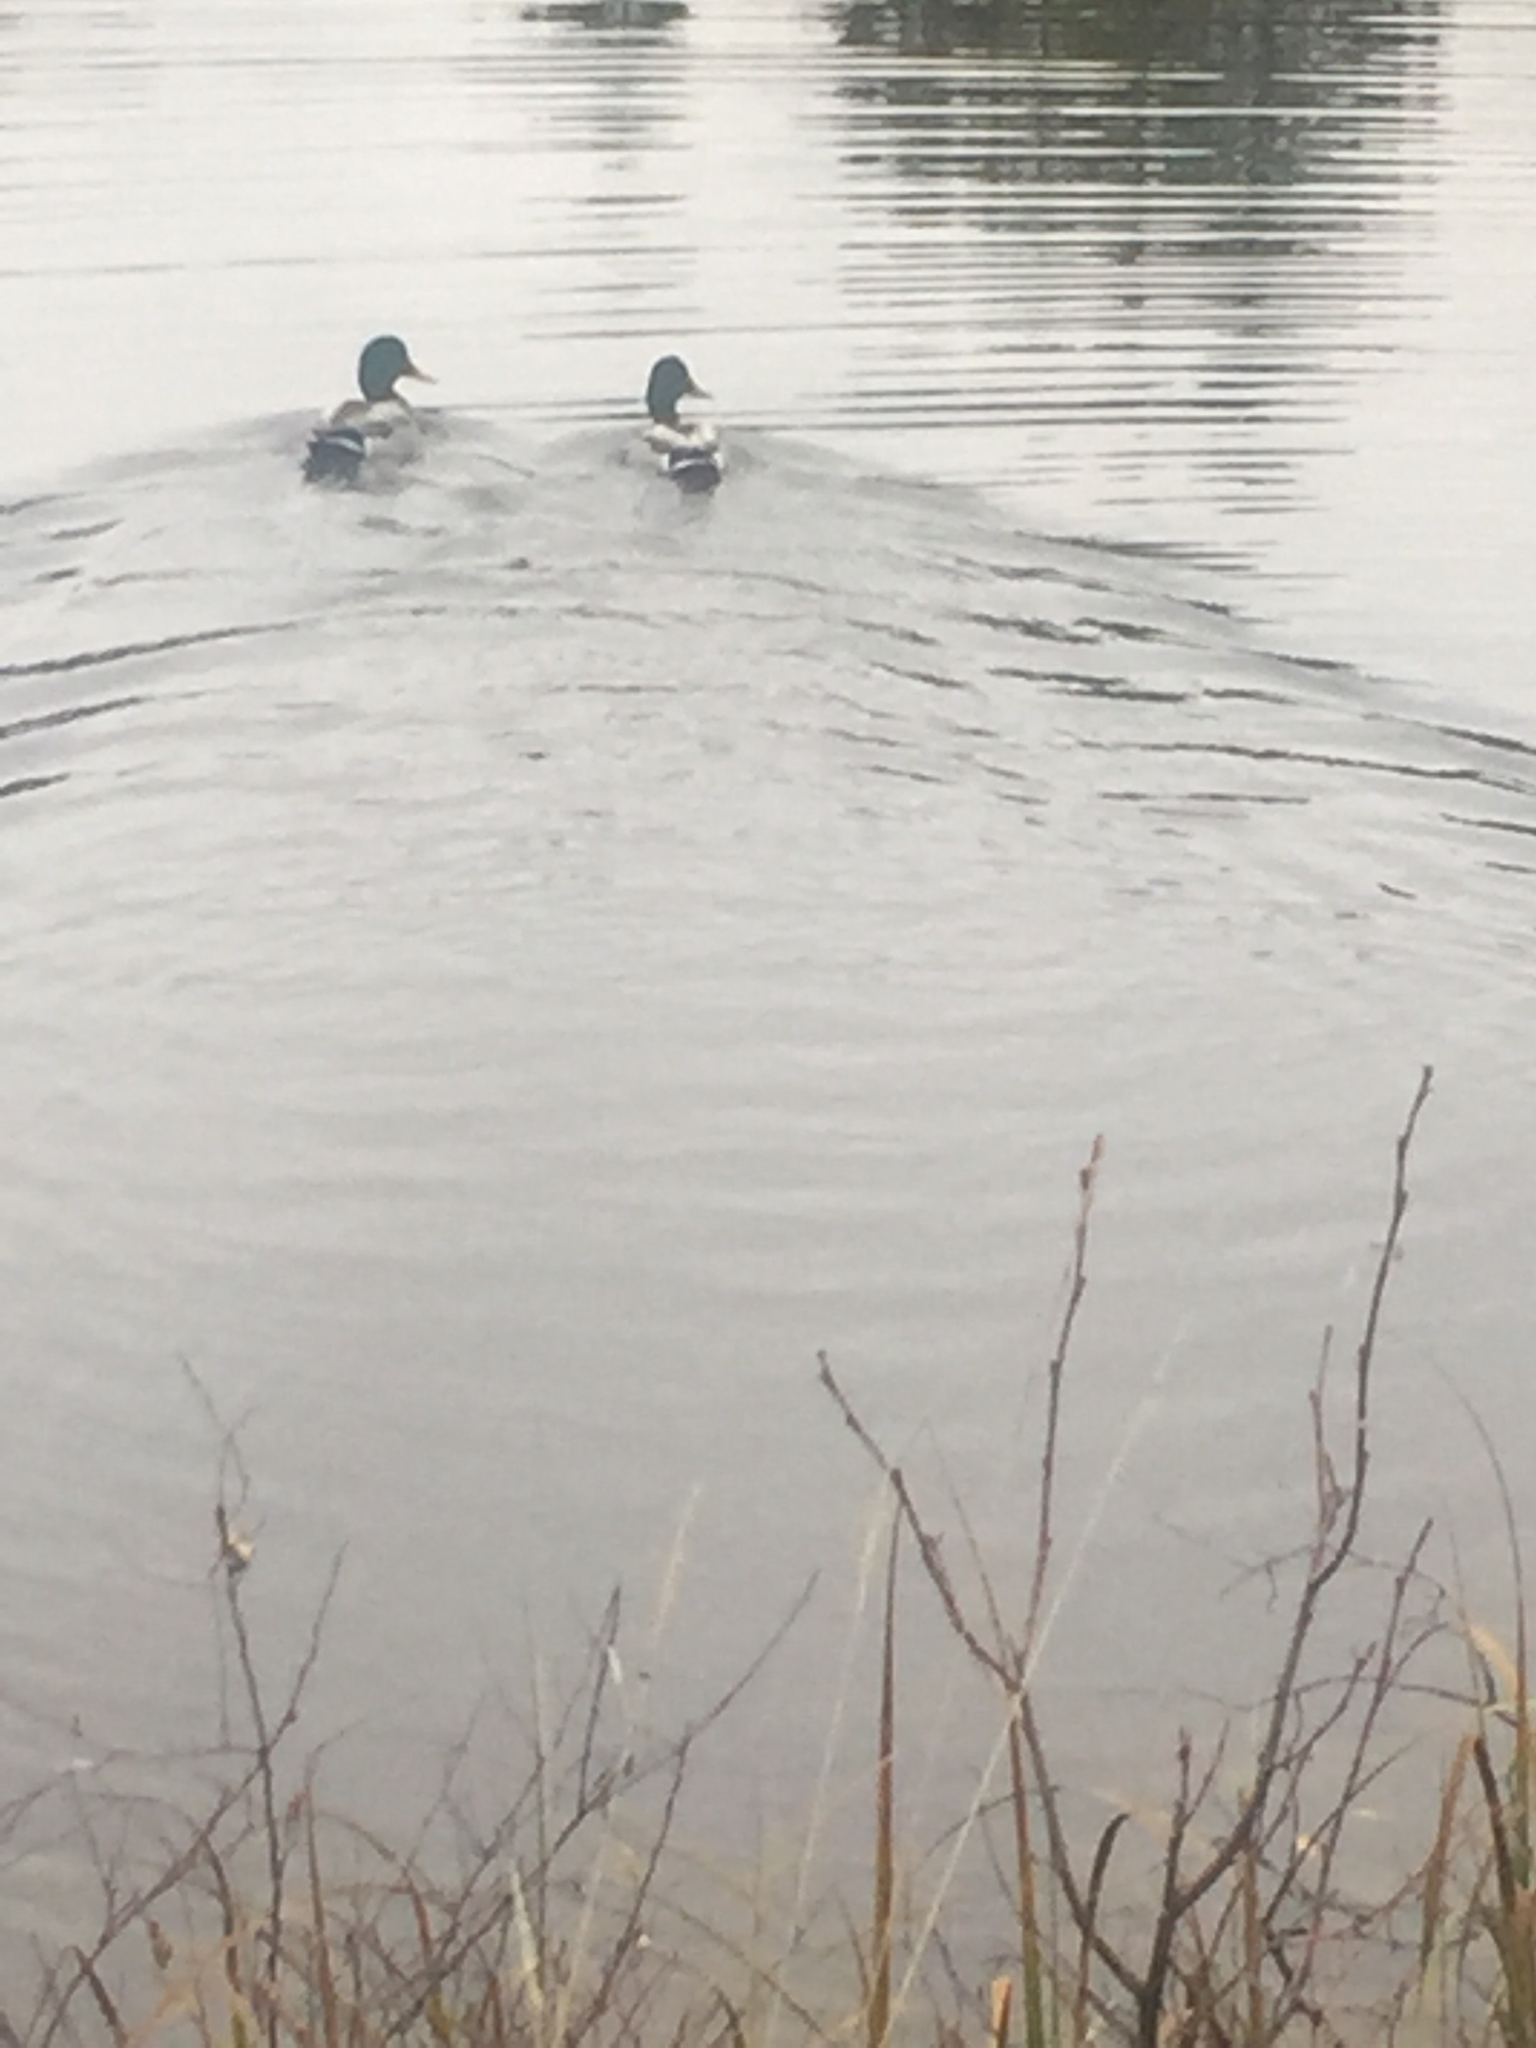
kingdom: Animalia
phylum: Chordata
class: Aves
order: Anseriformes
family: Anatidae
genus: Anas
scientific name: Anas platyrhynchos
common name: Mallard
